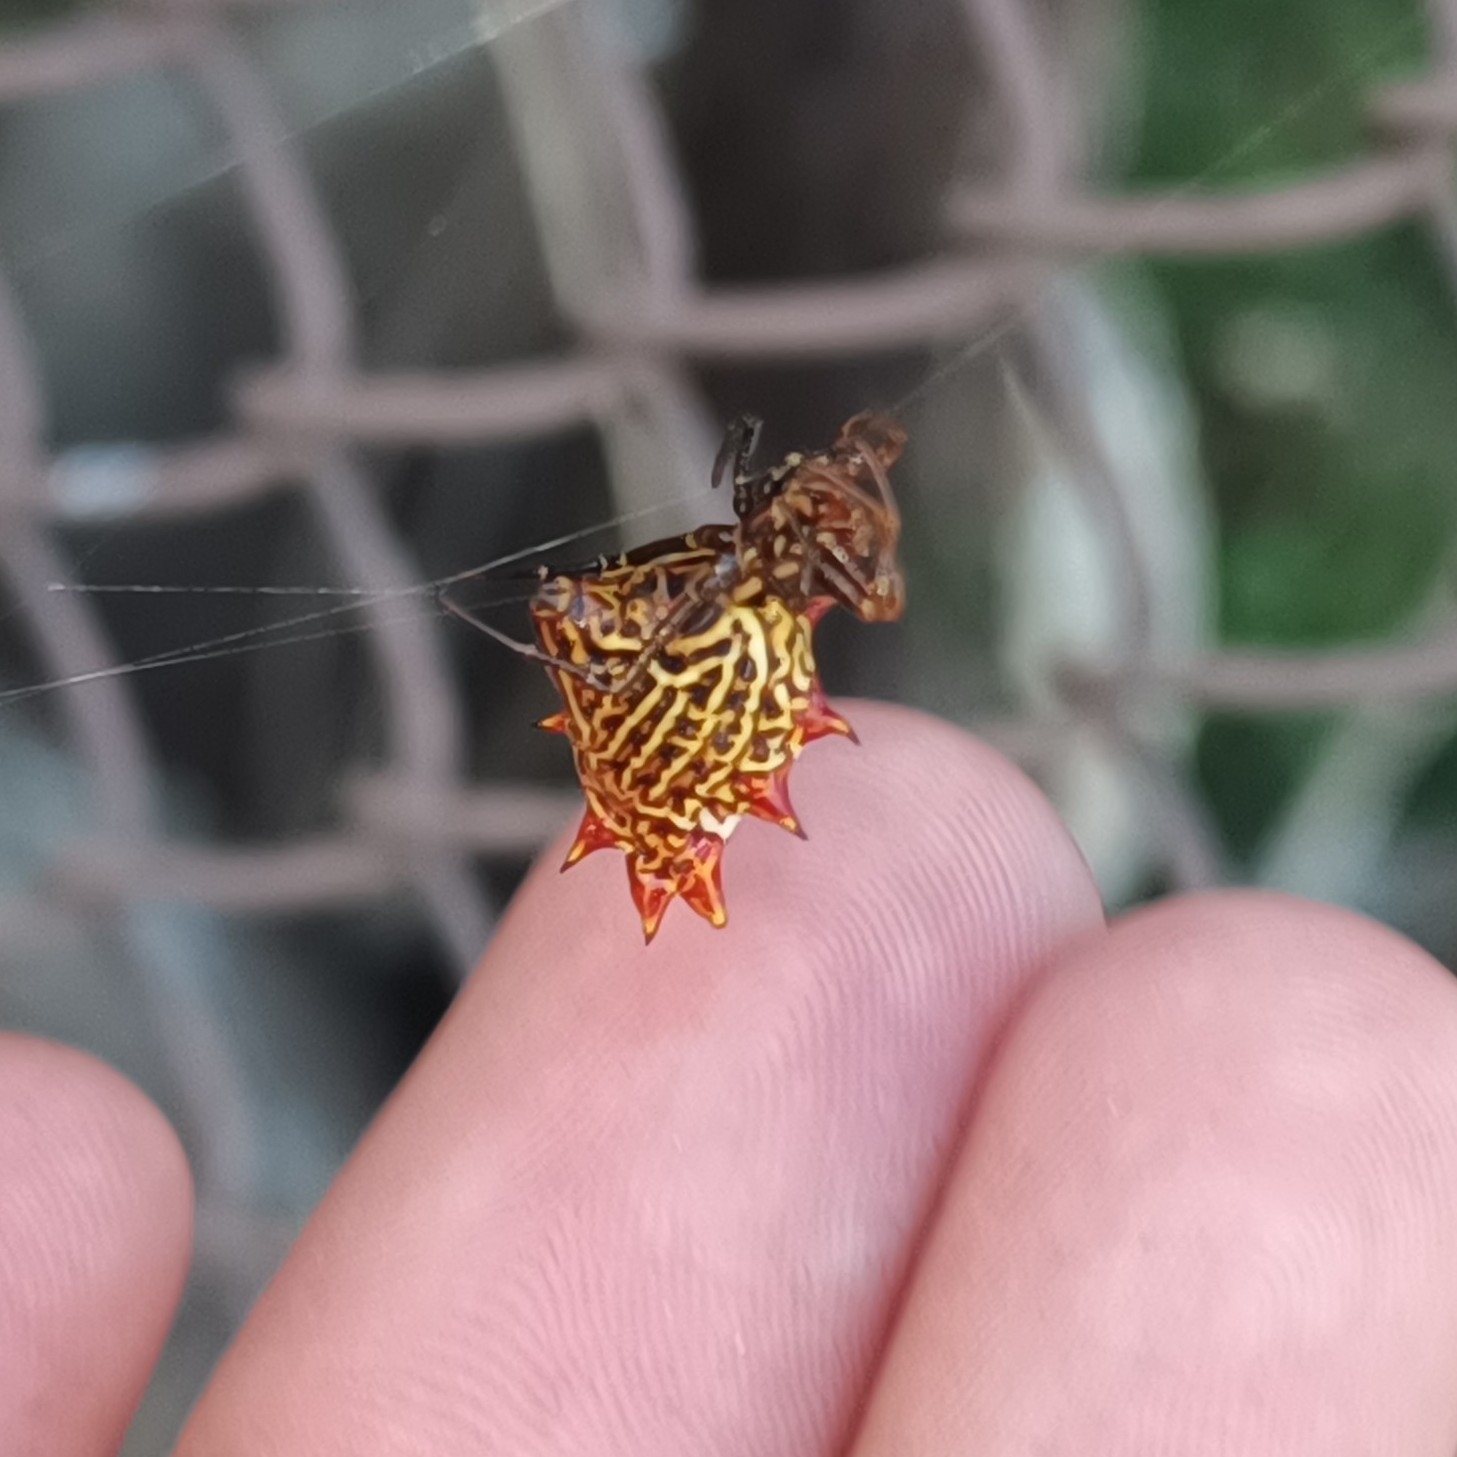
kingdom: Animalia
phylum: Arthropoda
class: Arachnida
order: Araneae
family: Araneidae
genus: Micrathena
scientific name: Micrathena gracilis
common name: Orb weavers
